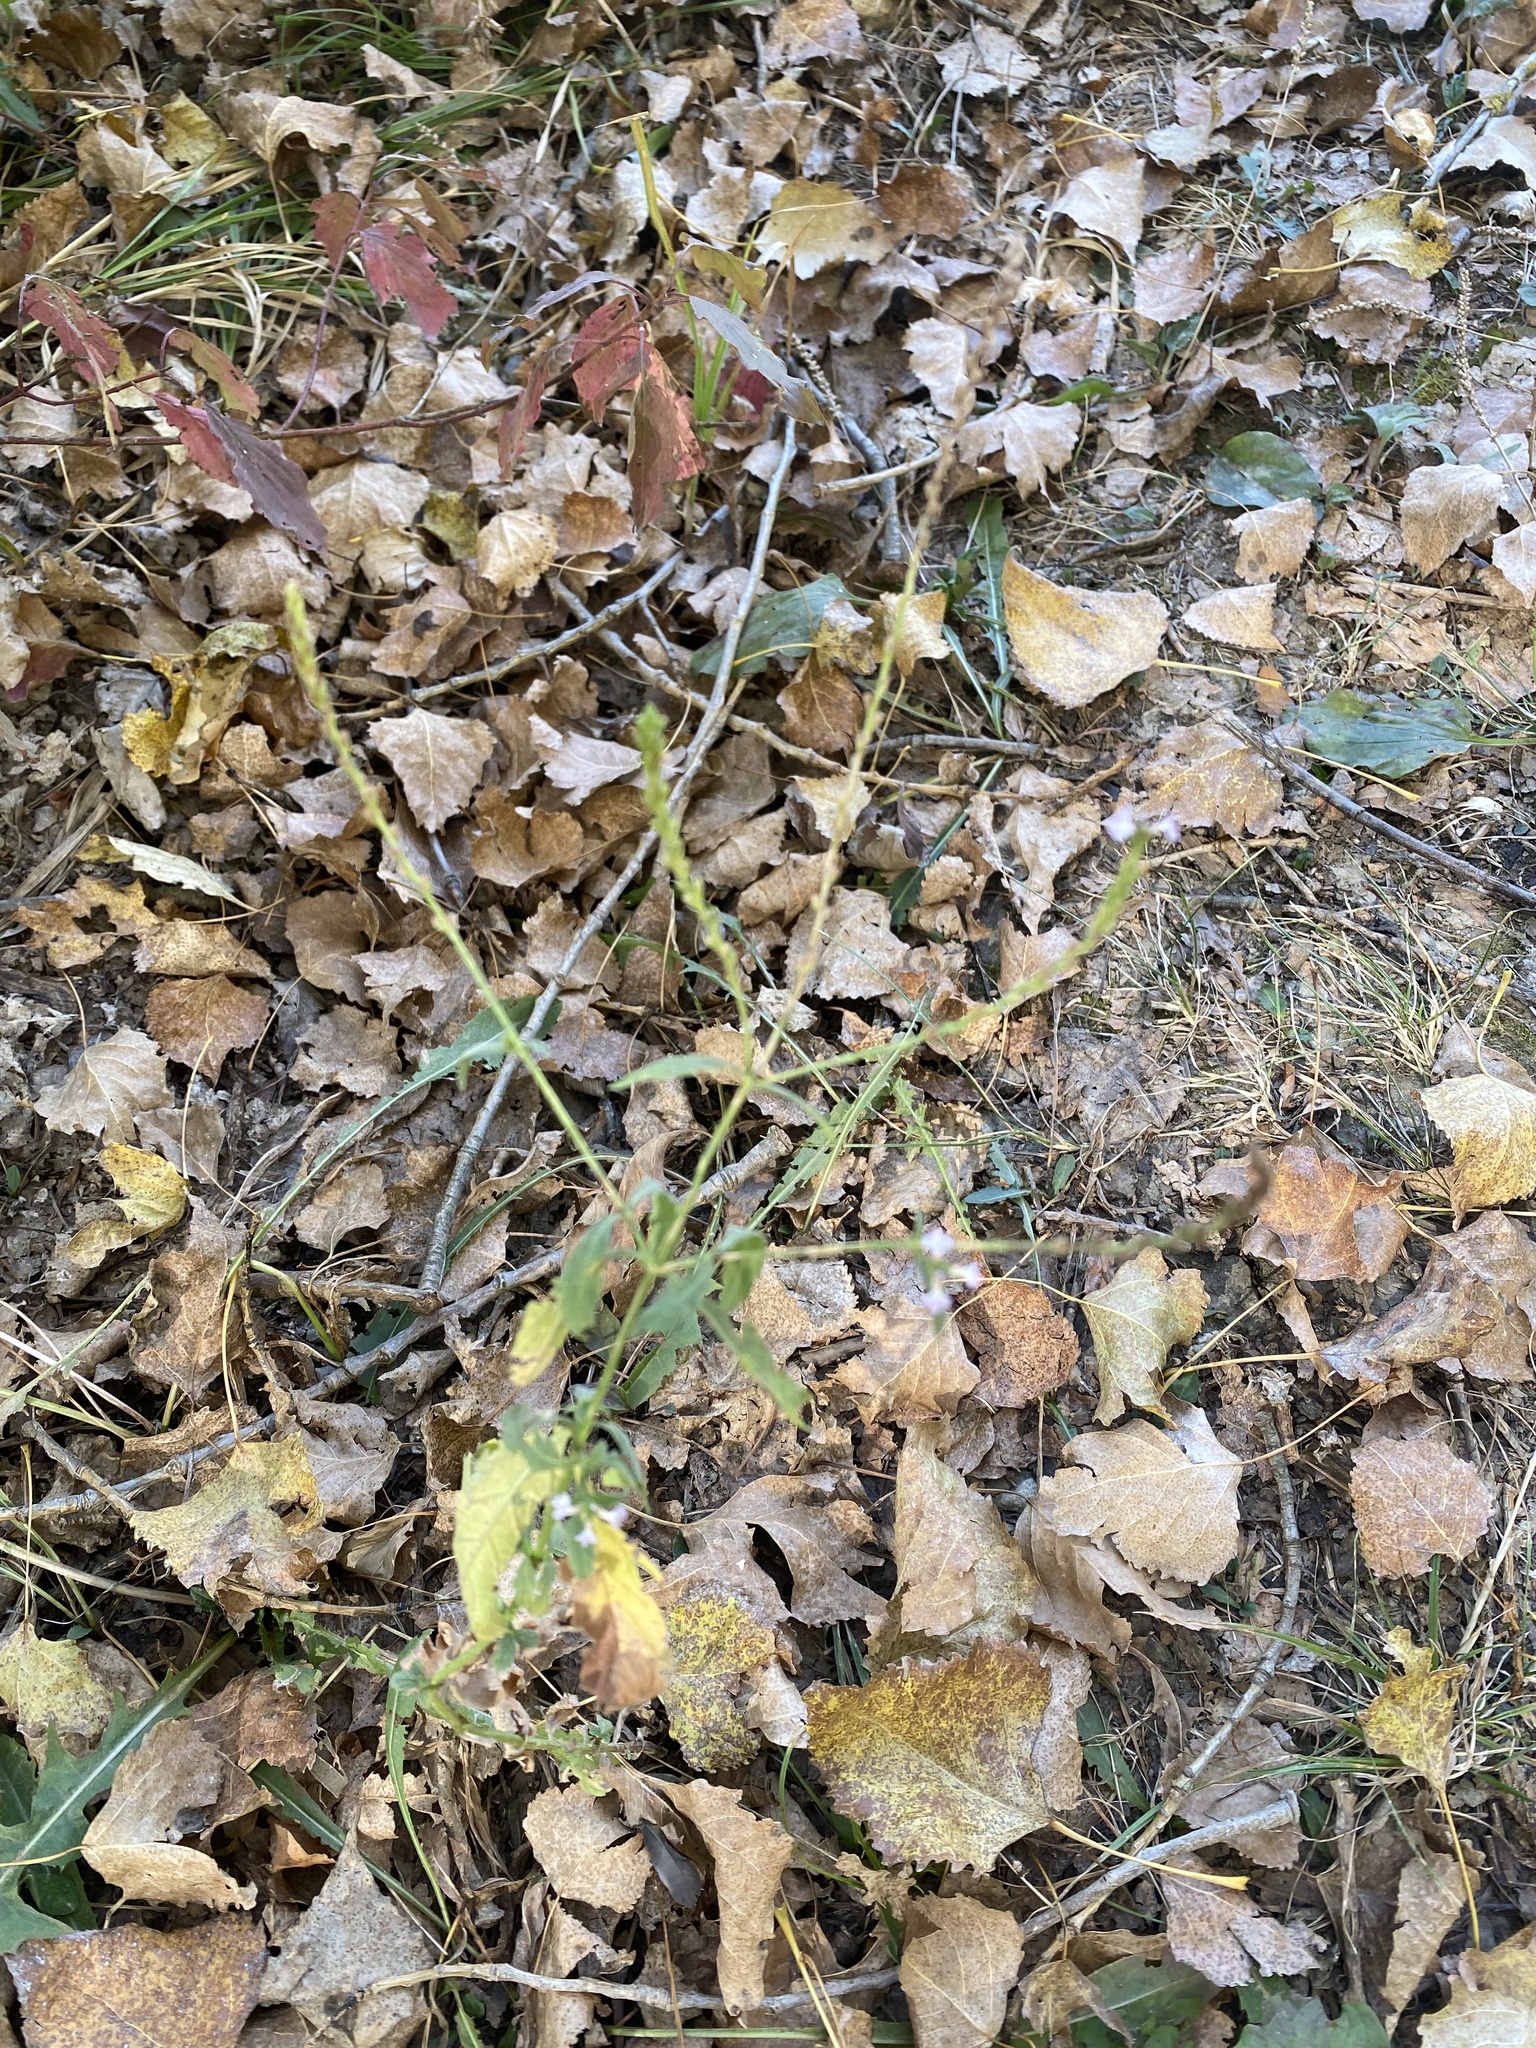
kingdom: Plantae
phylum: Tracheophyta
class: Magnoliopsida
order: Lamiales
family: Verbenaceae
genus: Verbena
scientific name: Verbena officinalis
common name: Vervain
